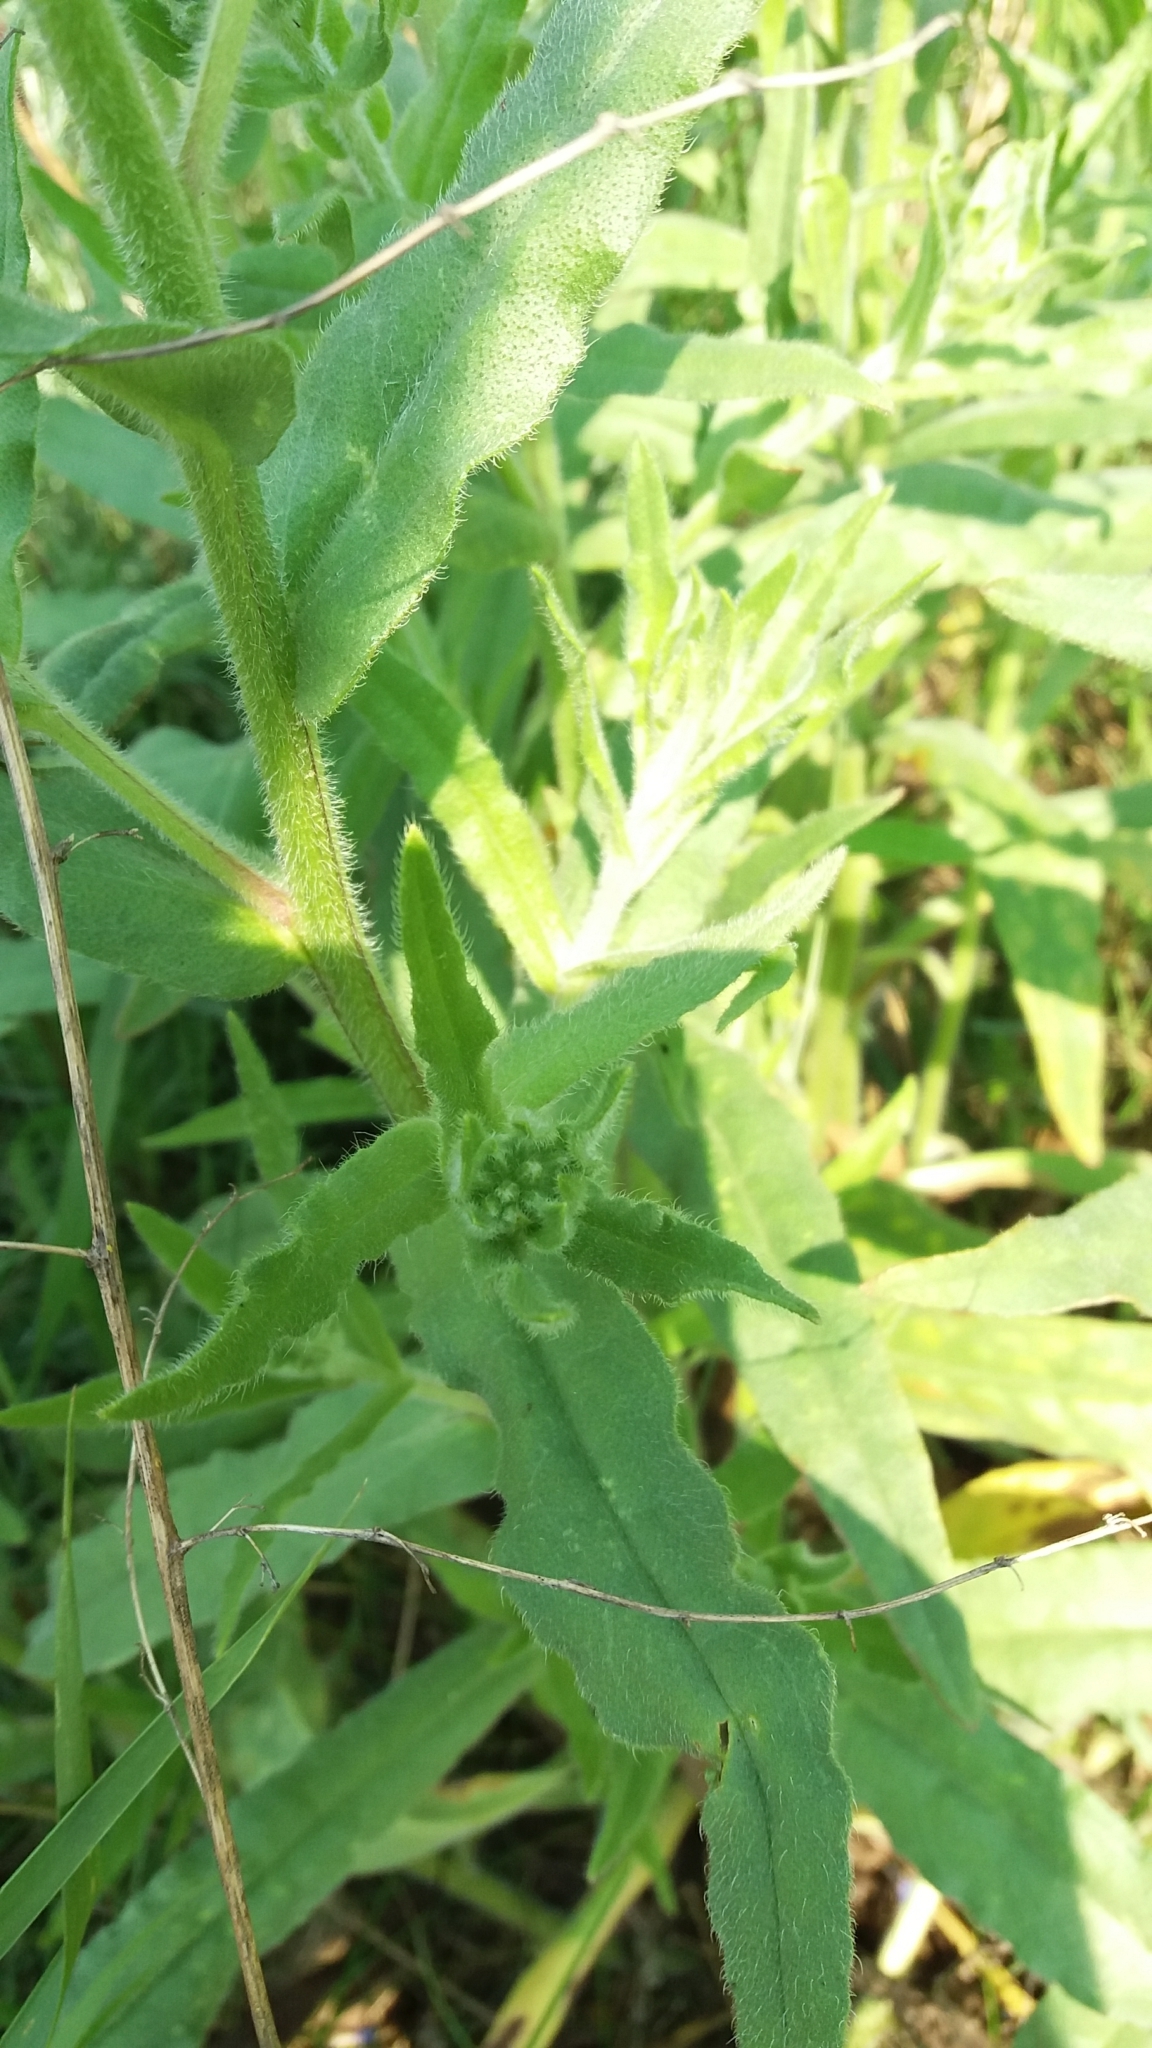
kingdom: Plantae
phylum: Tracheophyta
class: Magnoliopsida
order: Boraginales
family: Boraginaceae
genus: Anchusa
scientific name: Anchusa officinalis
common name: Alkanet
